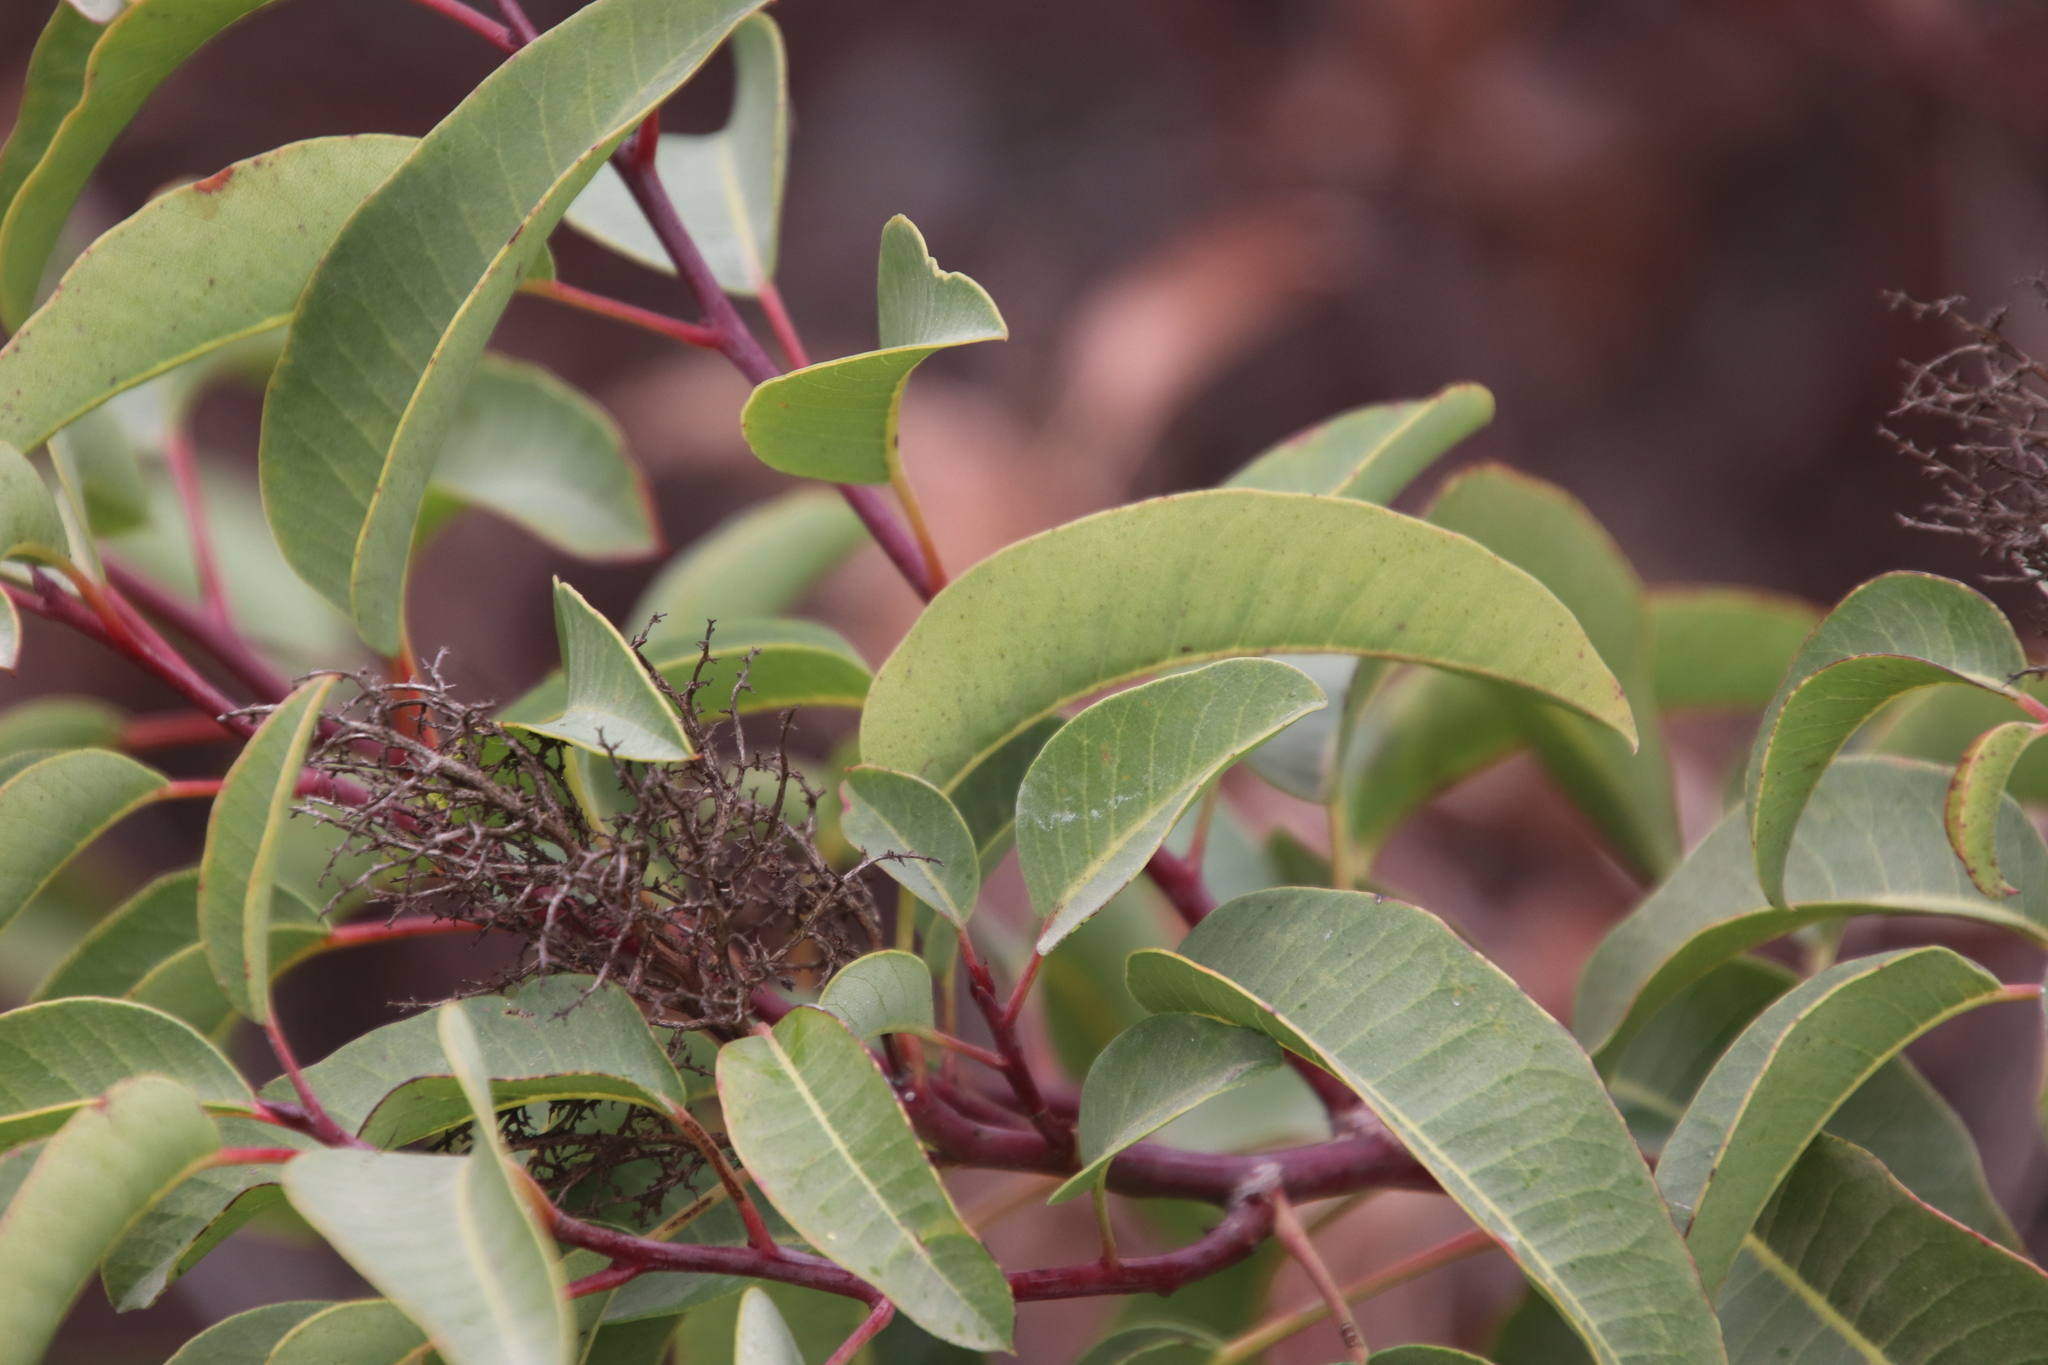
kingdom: Plantae
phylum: Tracheophyta
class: Magnoliopsida
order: Sapindales
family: Anacardiaceae
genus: Malosma
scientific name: Malosma laurina
